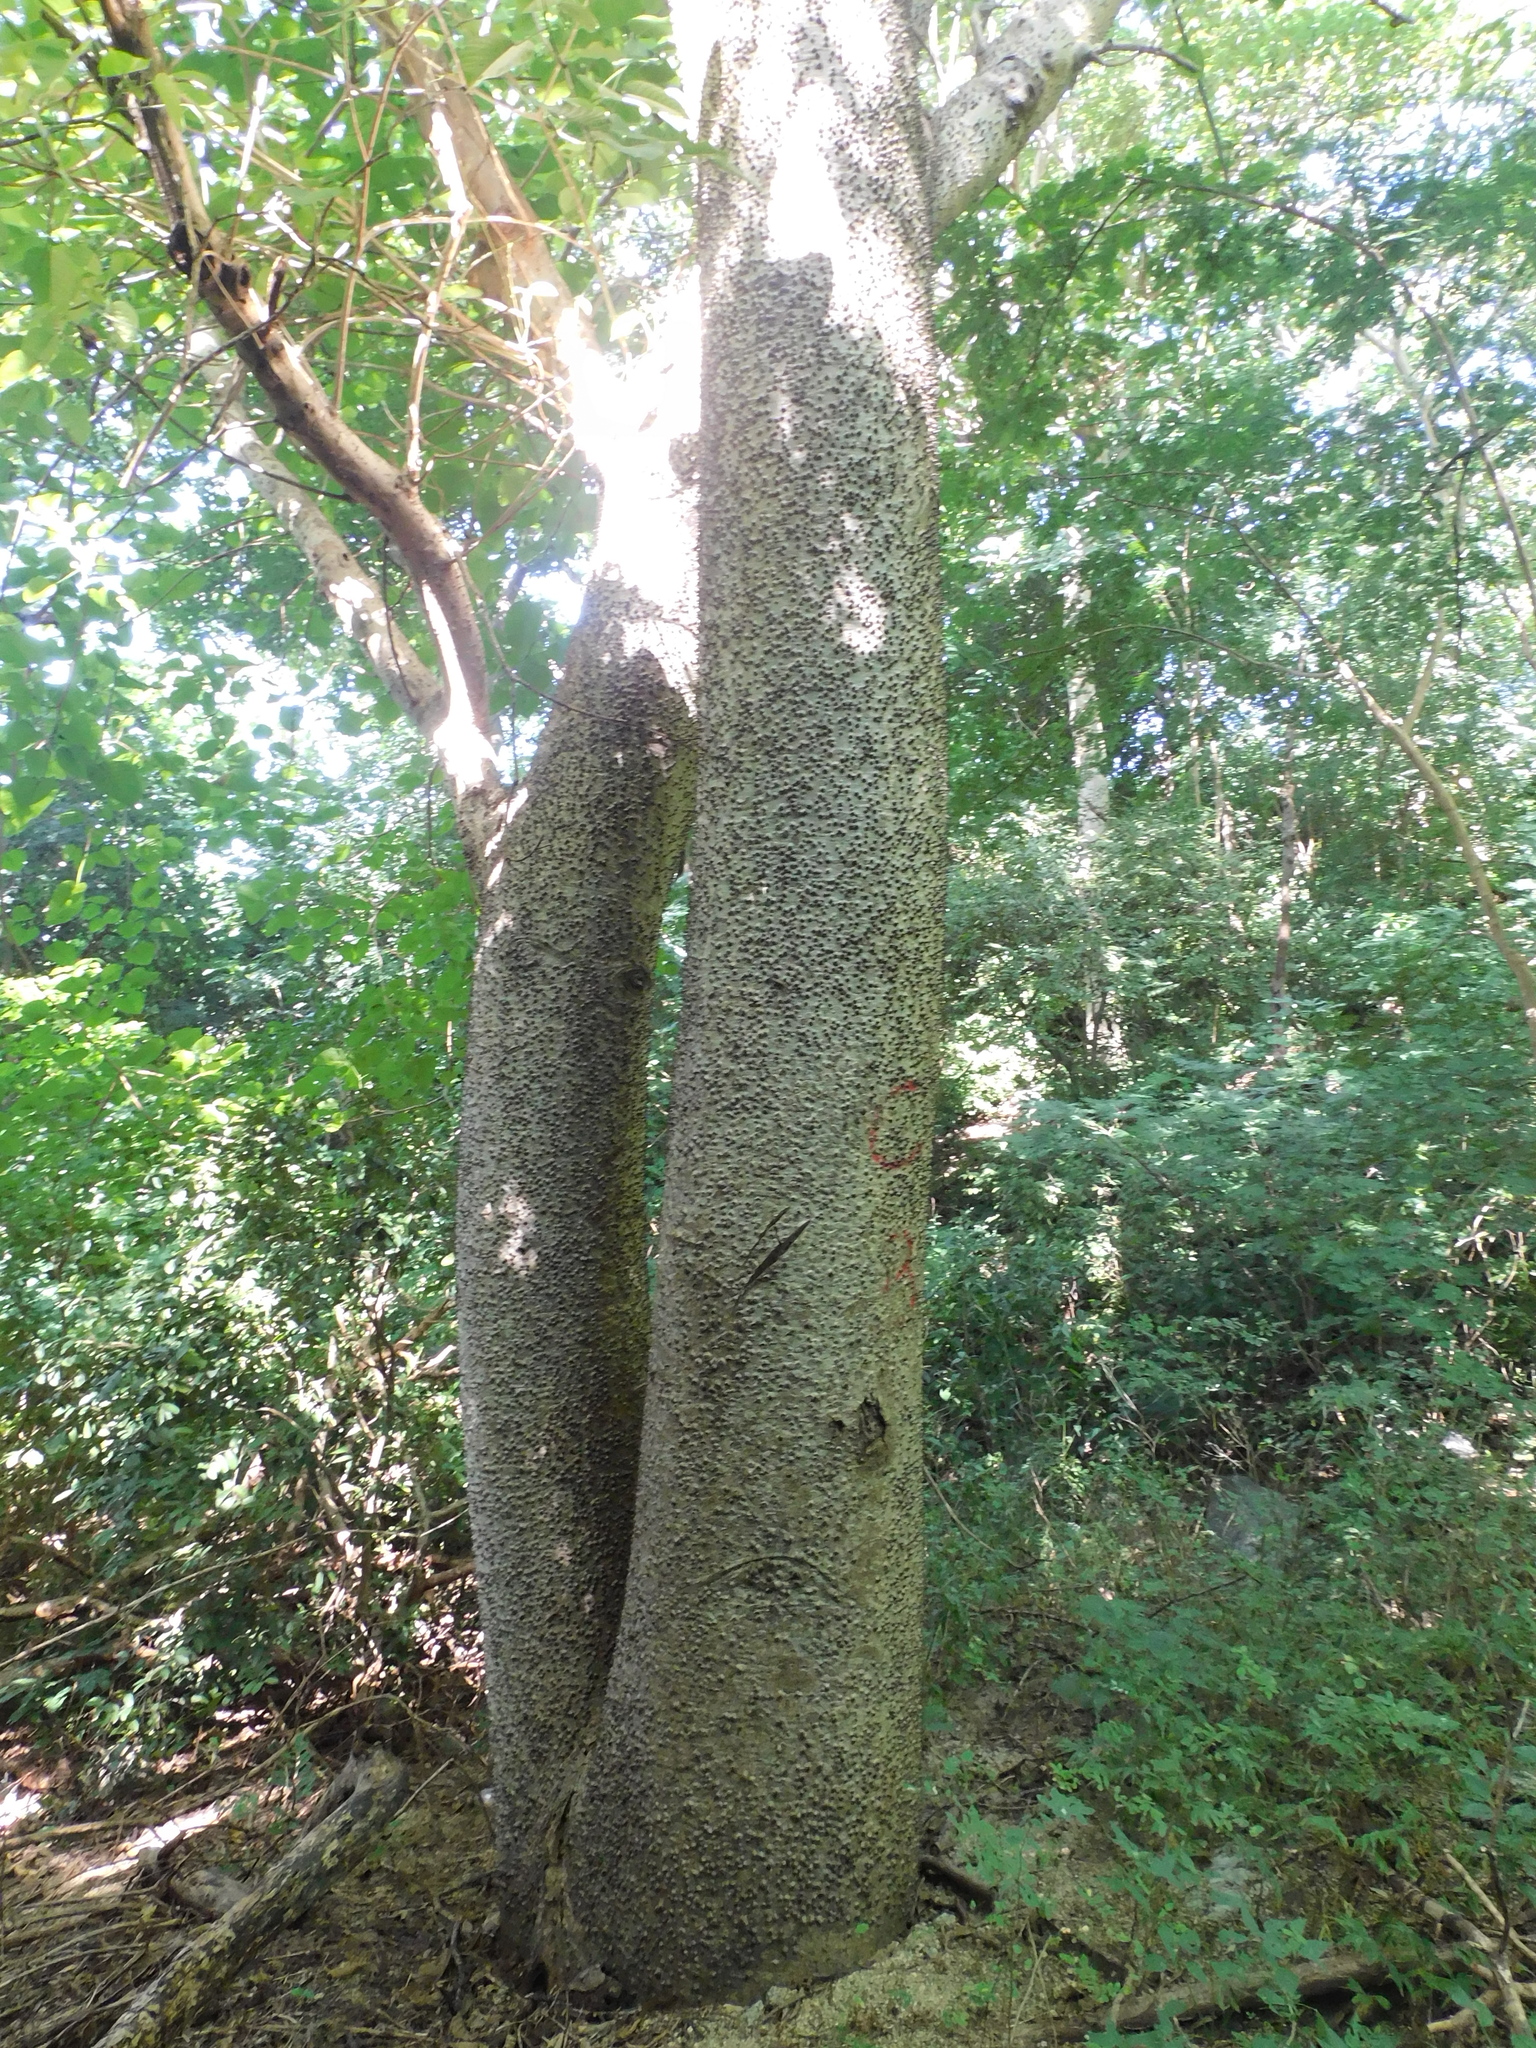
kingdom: Plantae
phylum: Tracheophyta
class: Magnoliopsida
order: Malpighiales
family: Euphorbiaceae
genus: Hura
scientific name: Hura crepitans
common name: Sandboxtree
